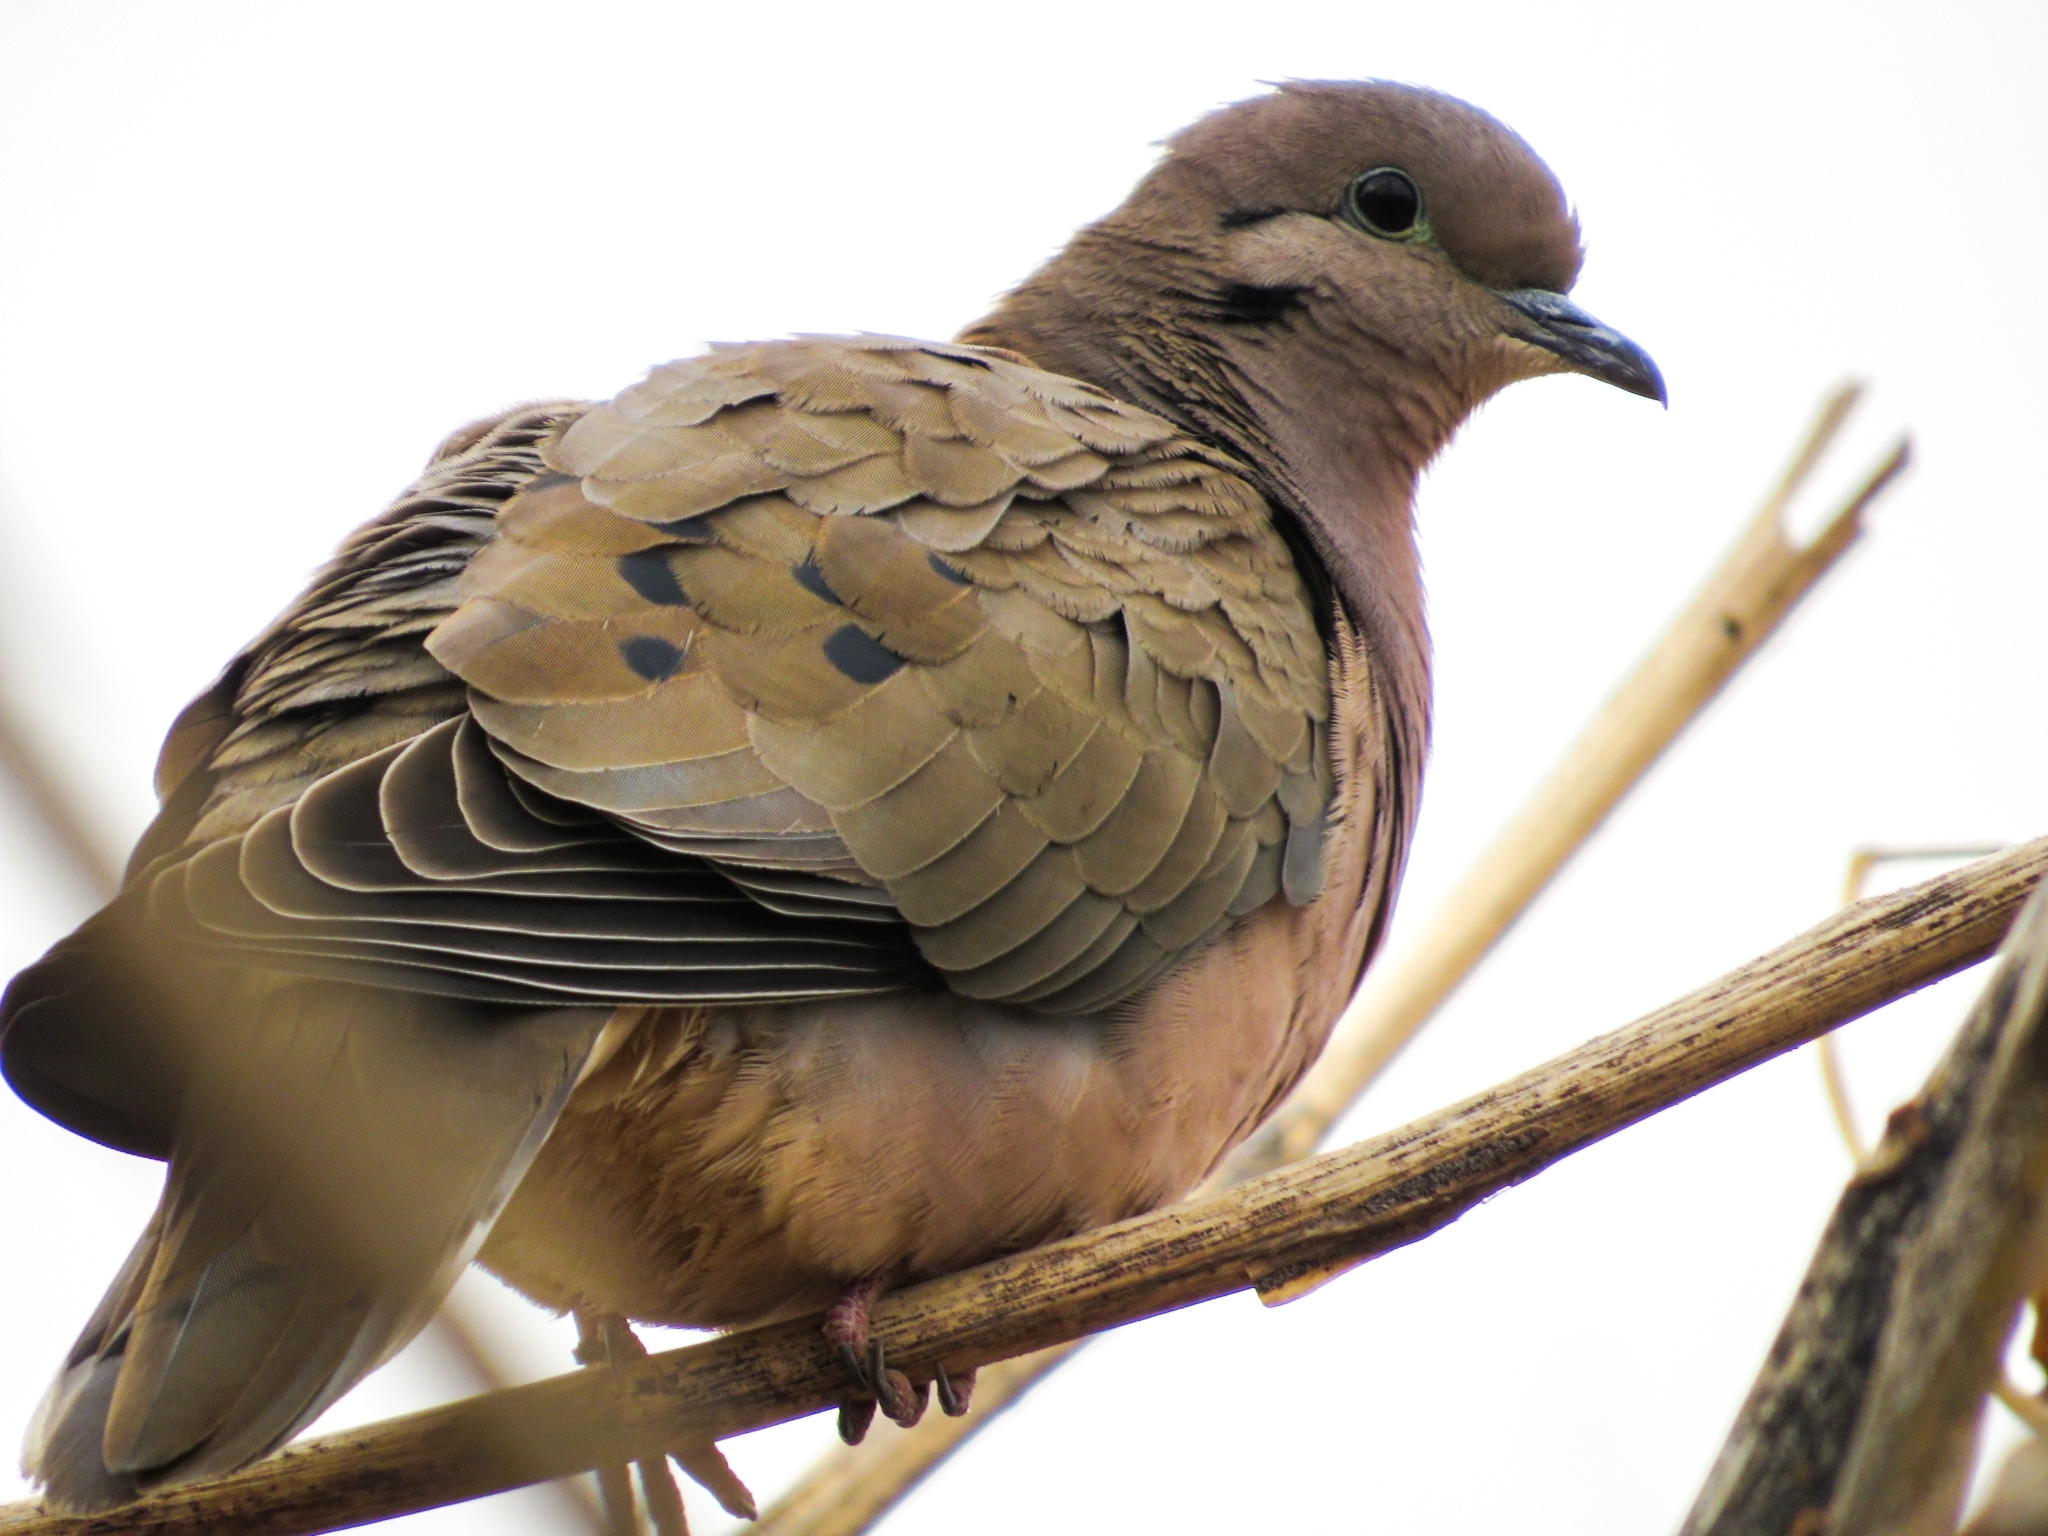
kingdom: Animalia
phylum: Chordata
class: Aves
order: Columbiformes
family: Columbidae
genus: Zenaida
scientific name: Zenaida auriculata
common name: Eared dove
